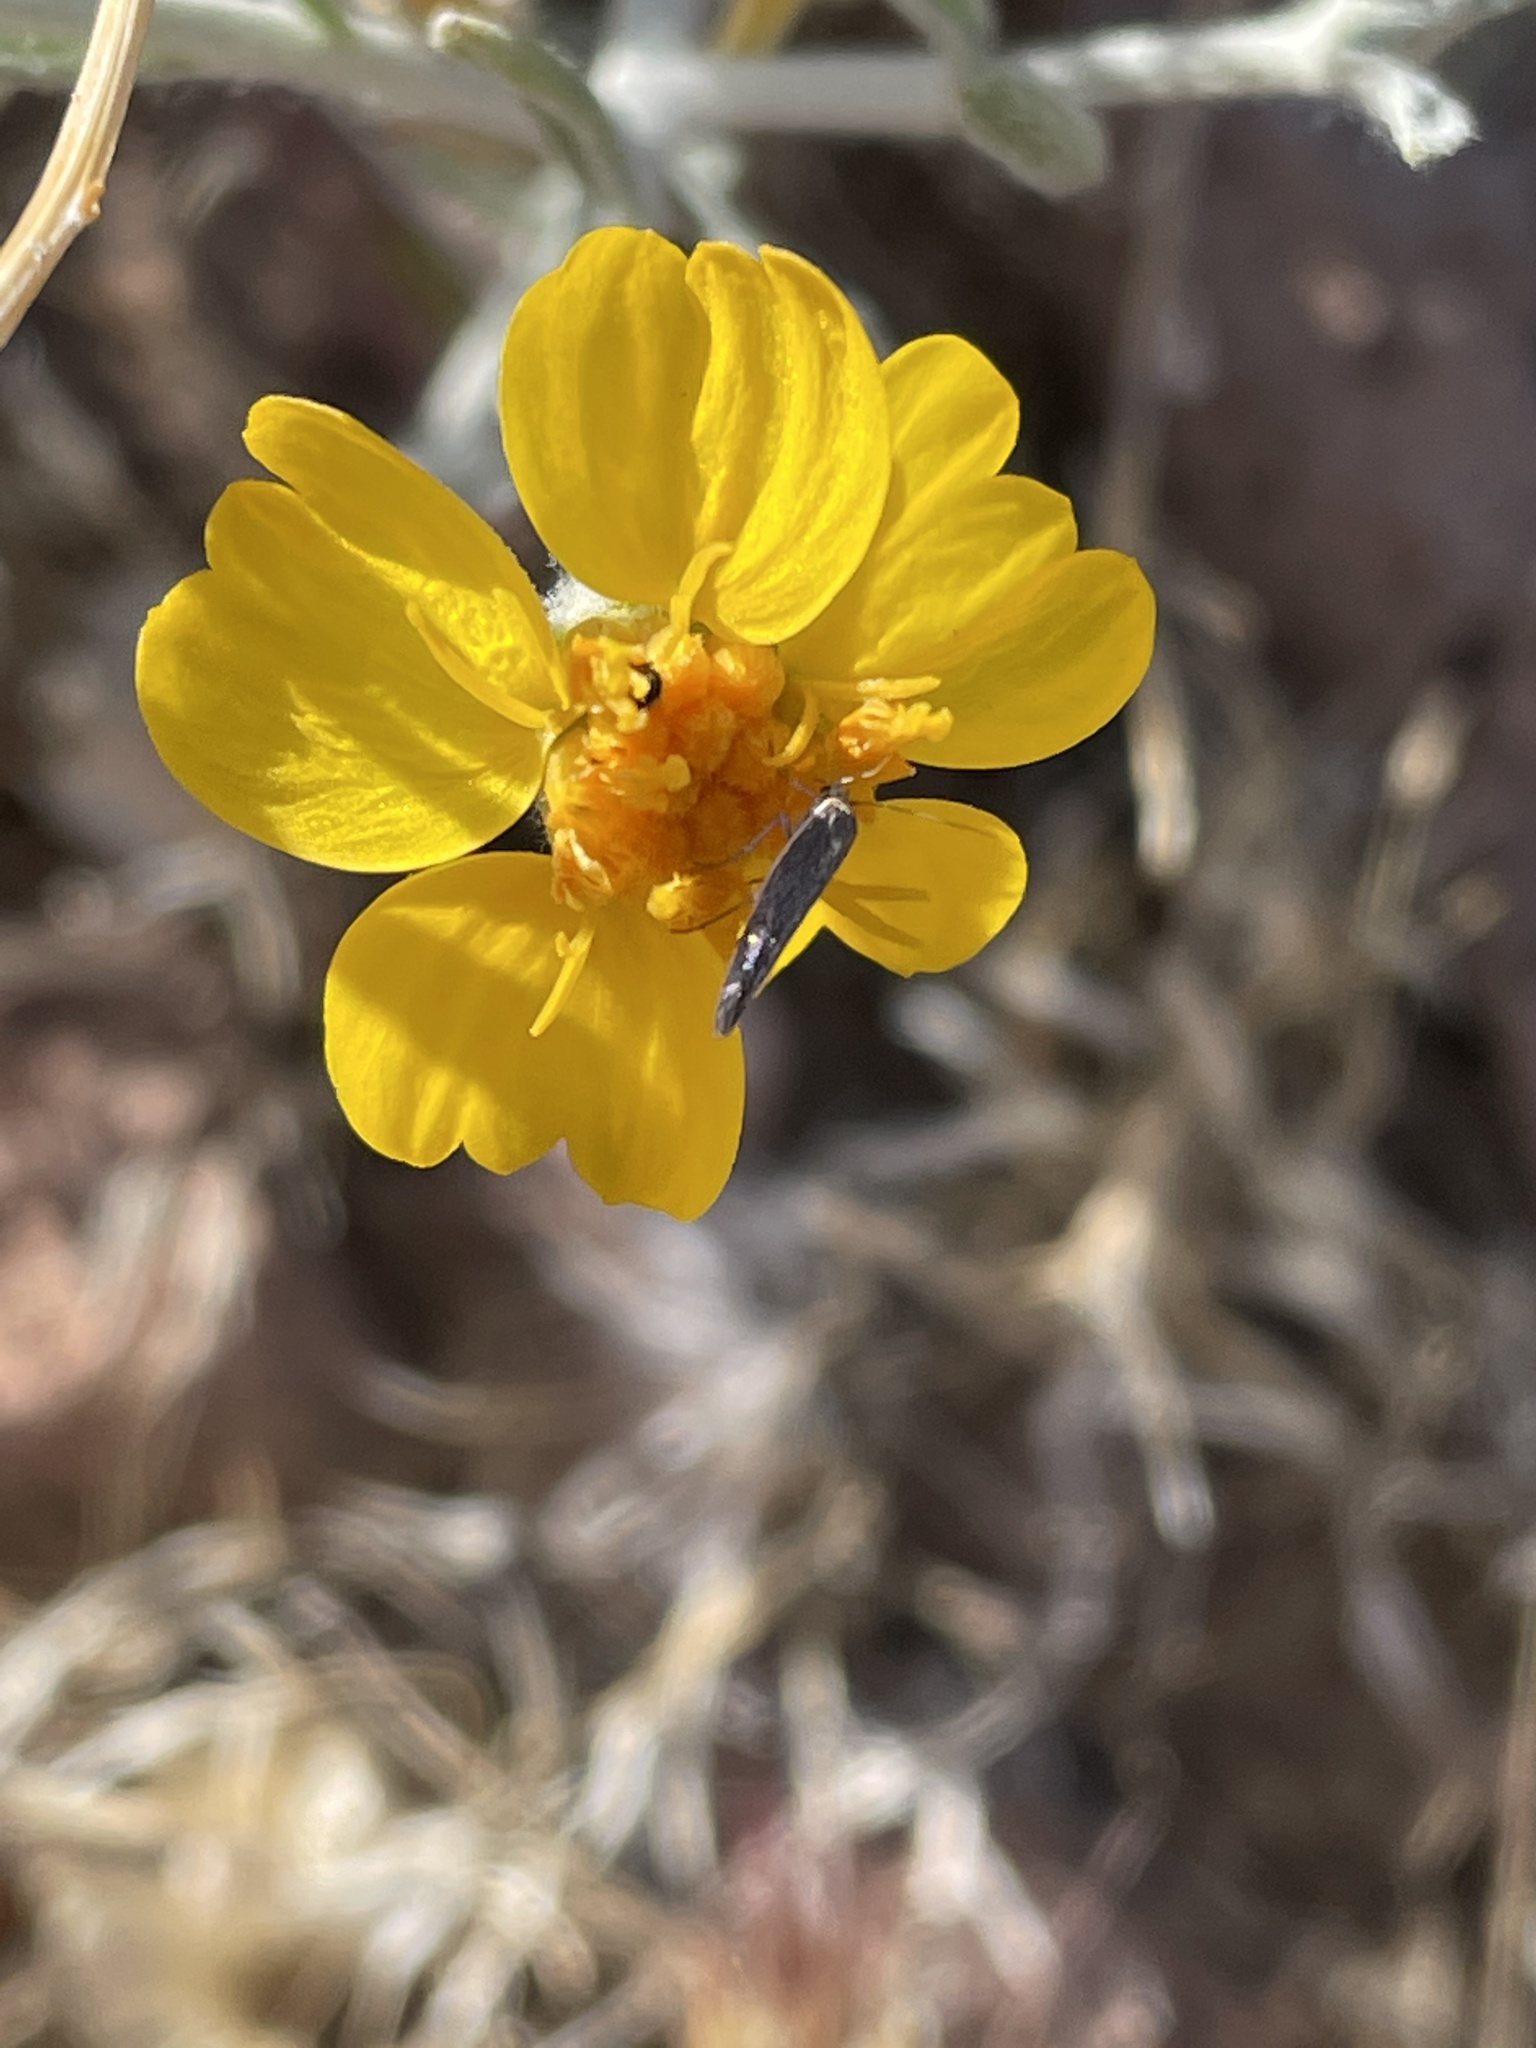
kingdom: Plantae
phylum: Tracheophyta
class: Magnoliopsida
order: Asterales
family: Asteraceae
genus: Psilostrophe
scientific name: Psilostrophe cooperi
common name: White-stem paper-flower
